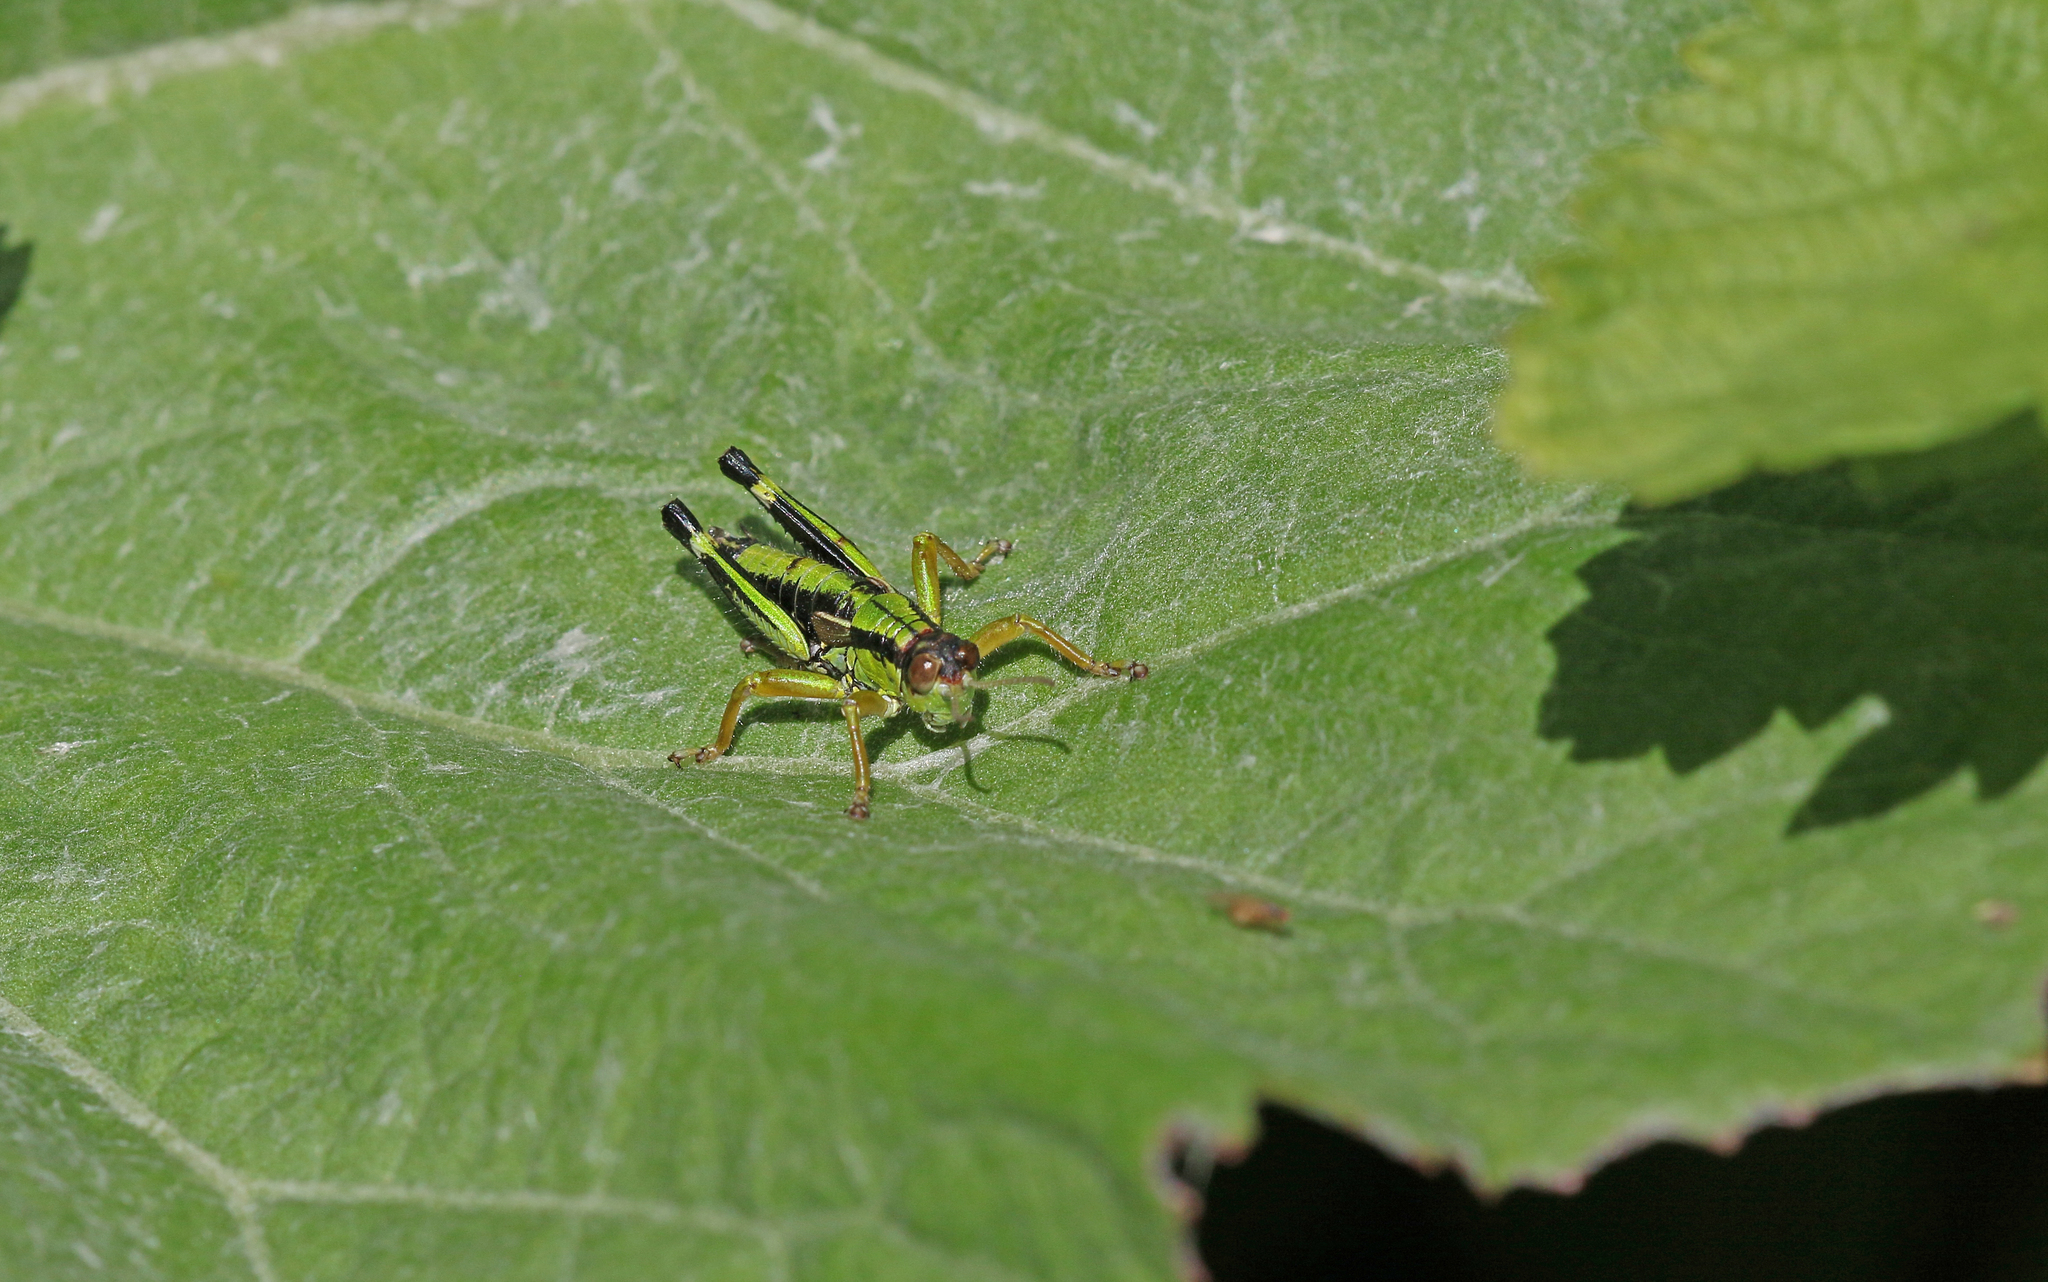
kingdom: Animalia
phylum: Arthropoda
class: Insecta
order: Orthoptera
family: Acrididae
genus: Miramella
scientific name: Miramella alpina
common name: Green mountain grasshopper
